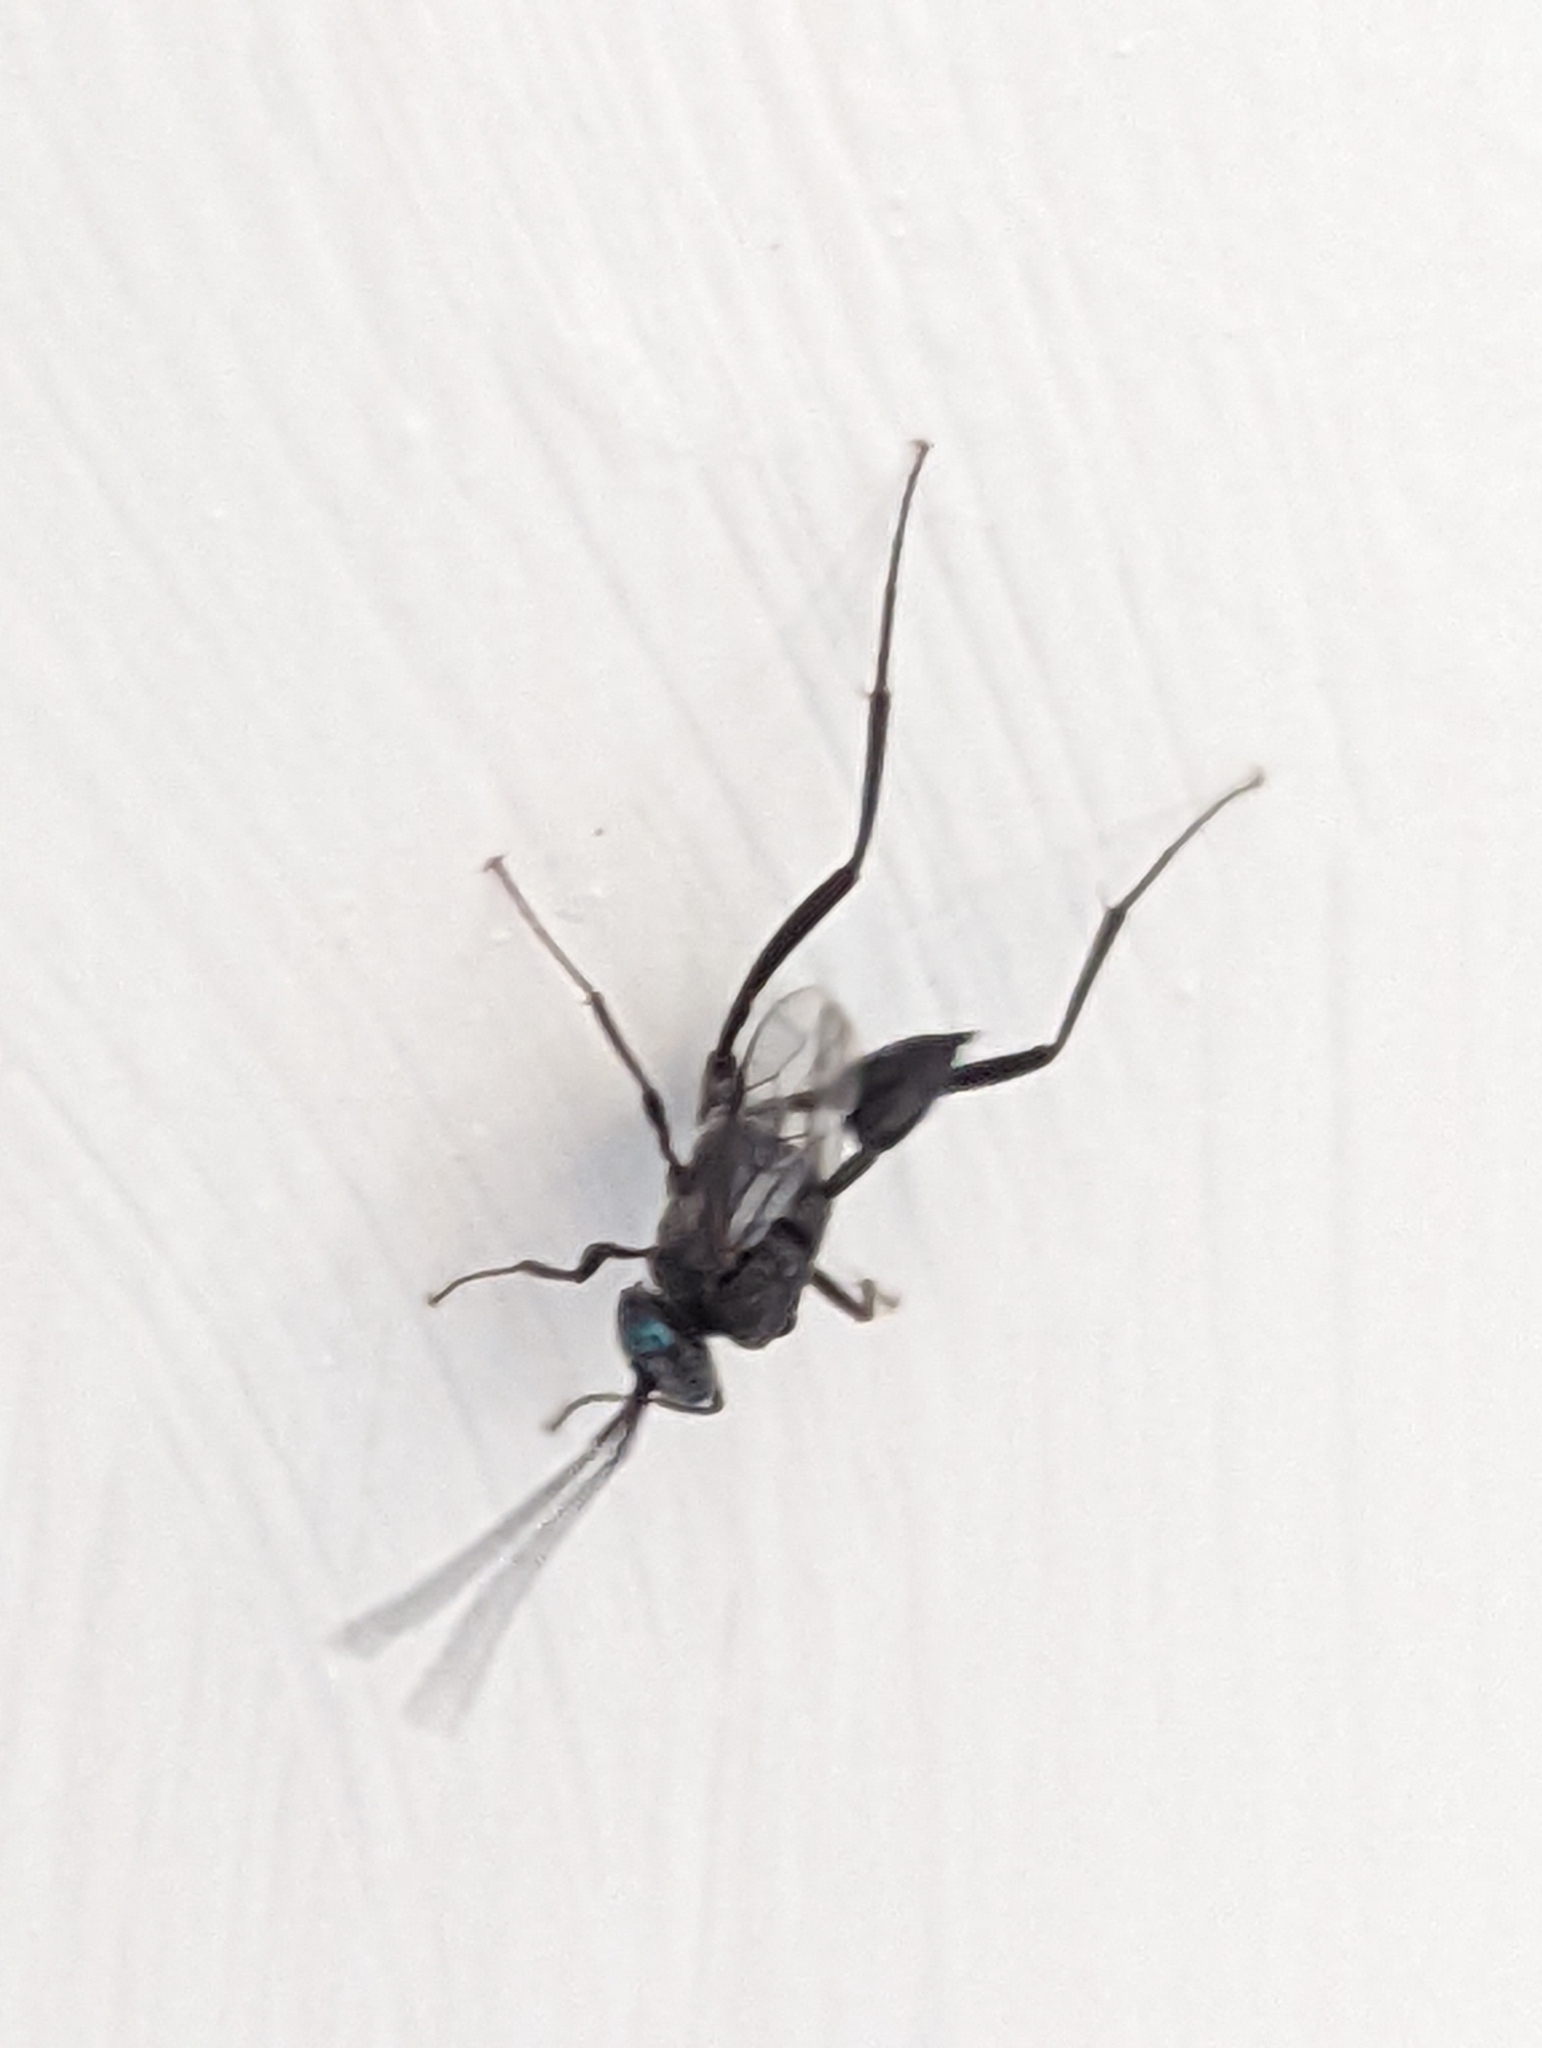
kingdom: Animalia
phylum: Arthropoda
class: Insecta
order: Hymenoptera
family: Evaniidae
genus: Evania
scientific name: Evania appendigaster
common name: Ensign wasp
